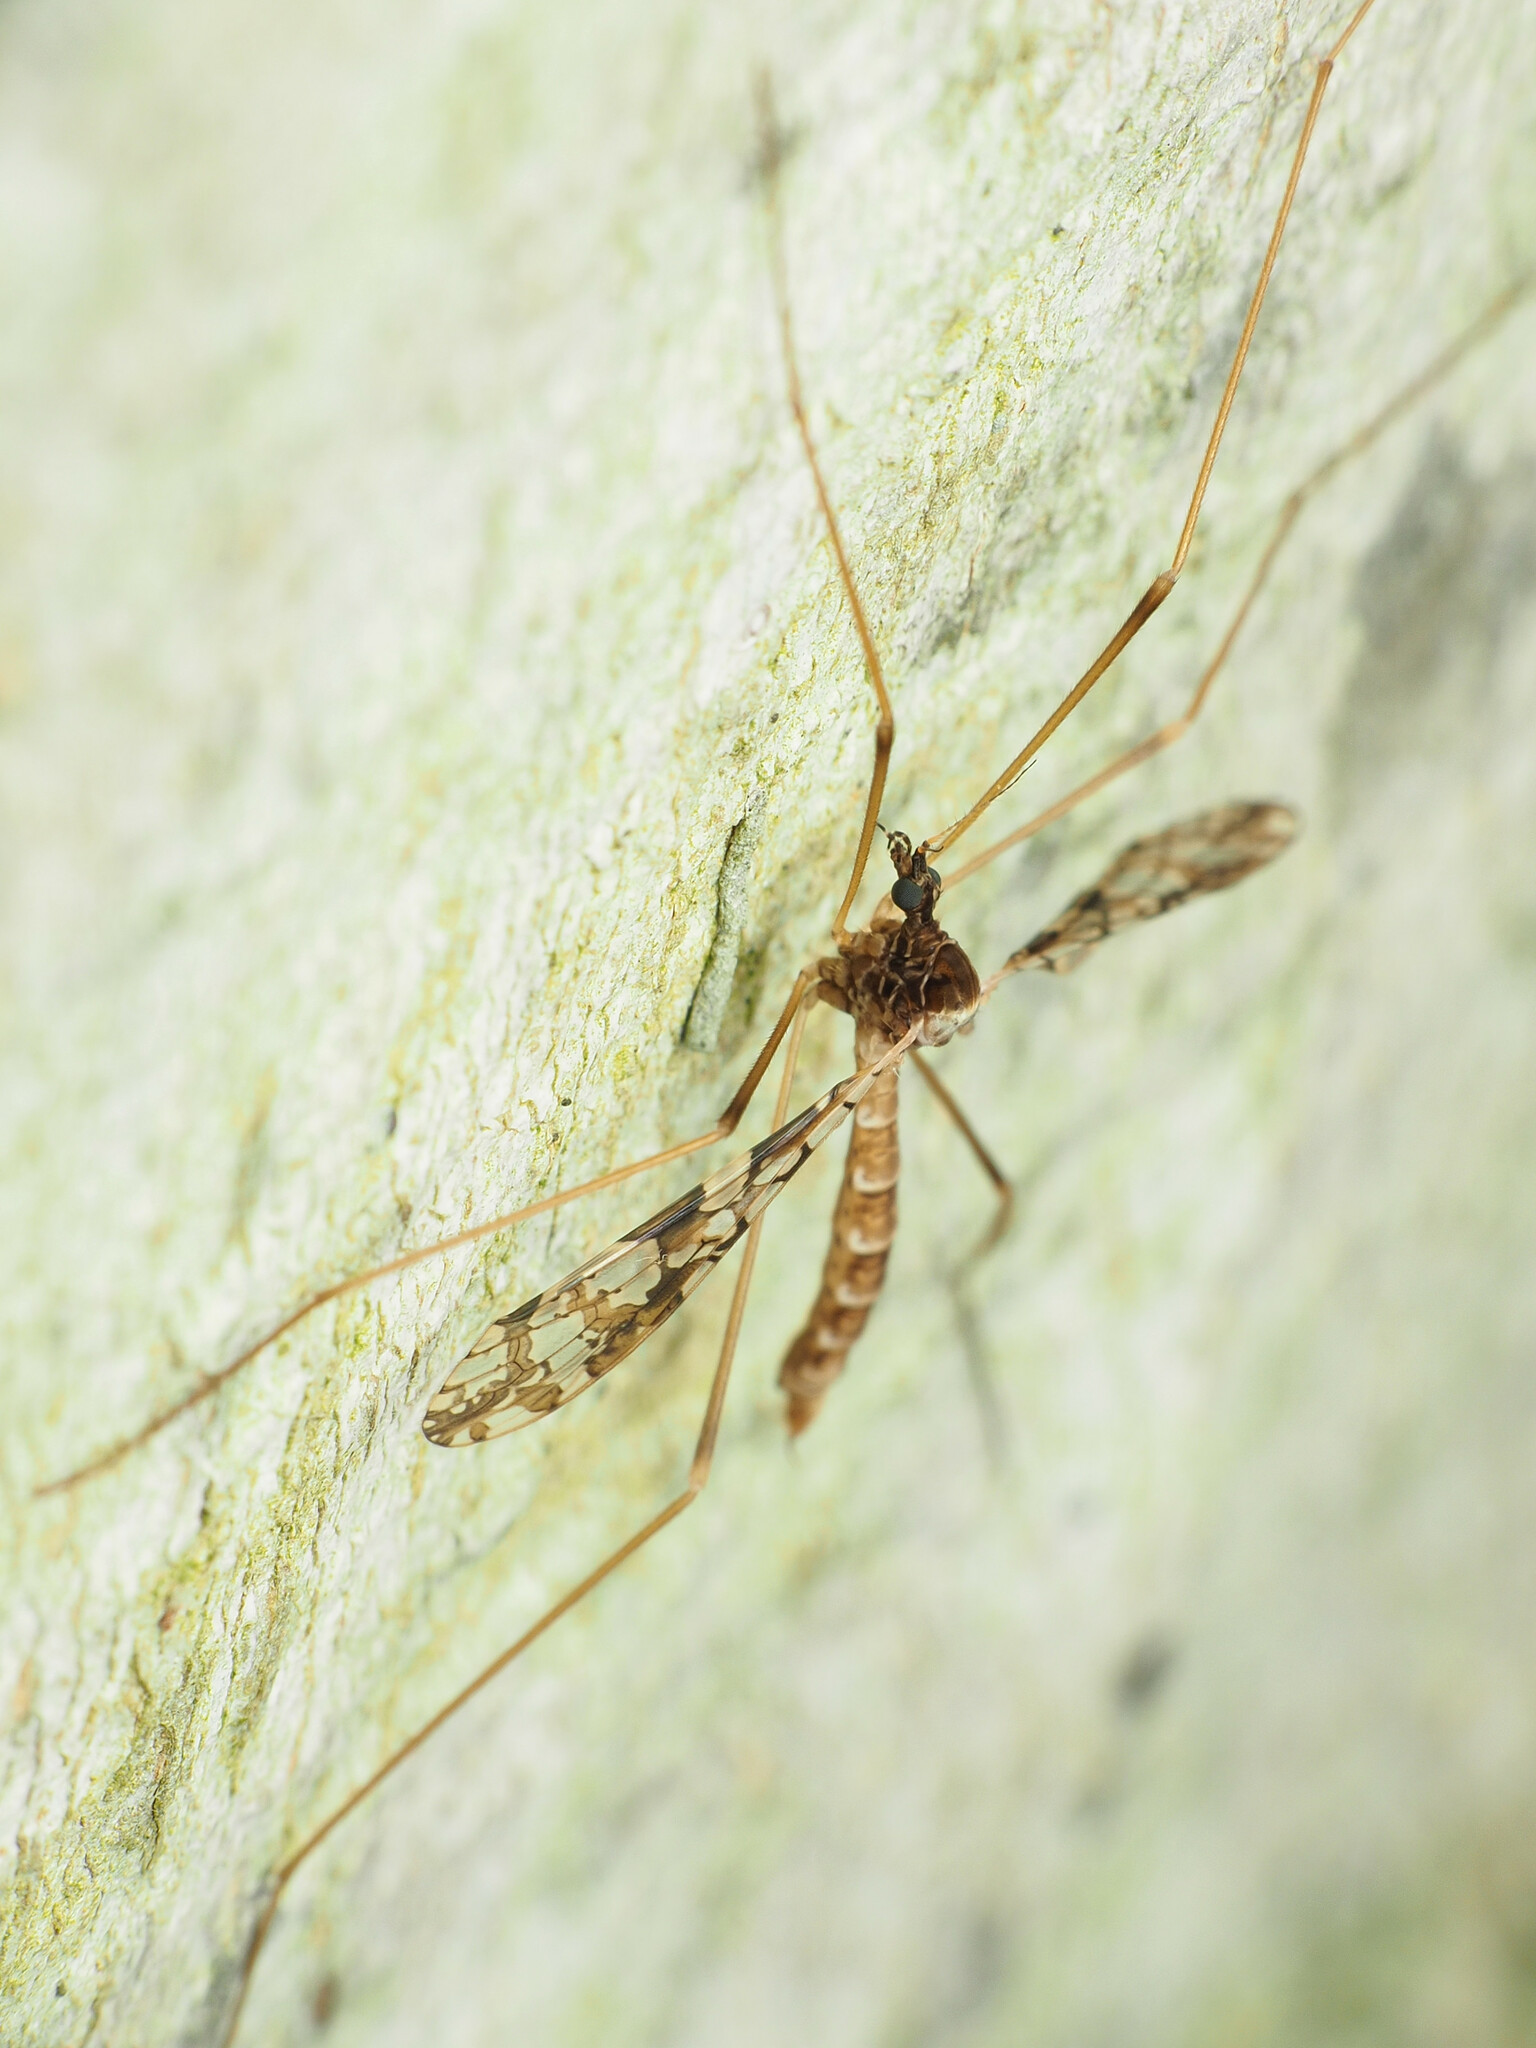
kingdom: Animalia
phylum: Arthropoda
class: Insecta
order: Diptera
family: Limoniidae
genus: Epiphragma
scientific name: Epiphragma solatrix
